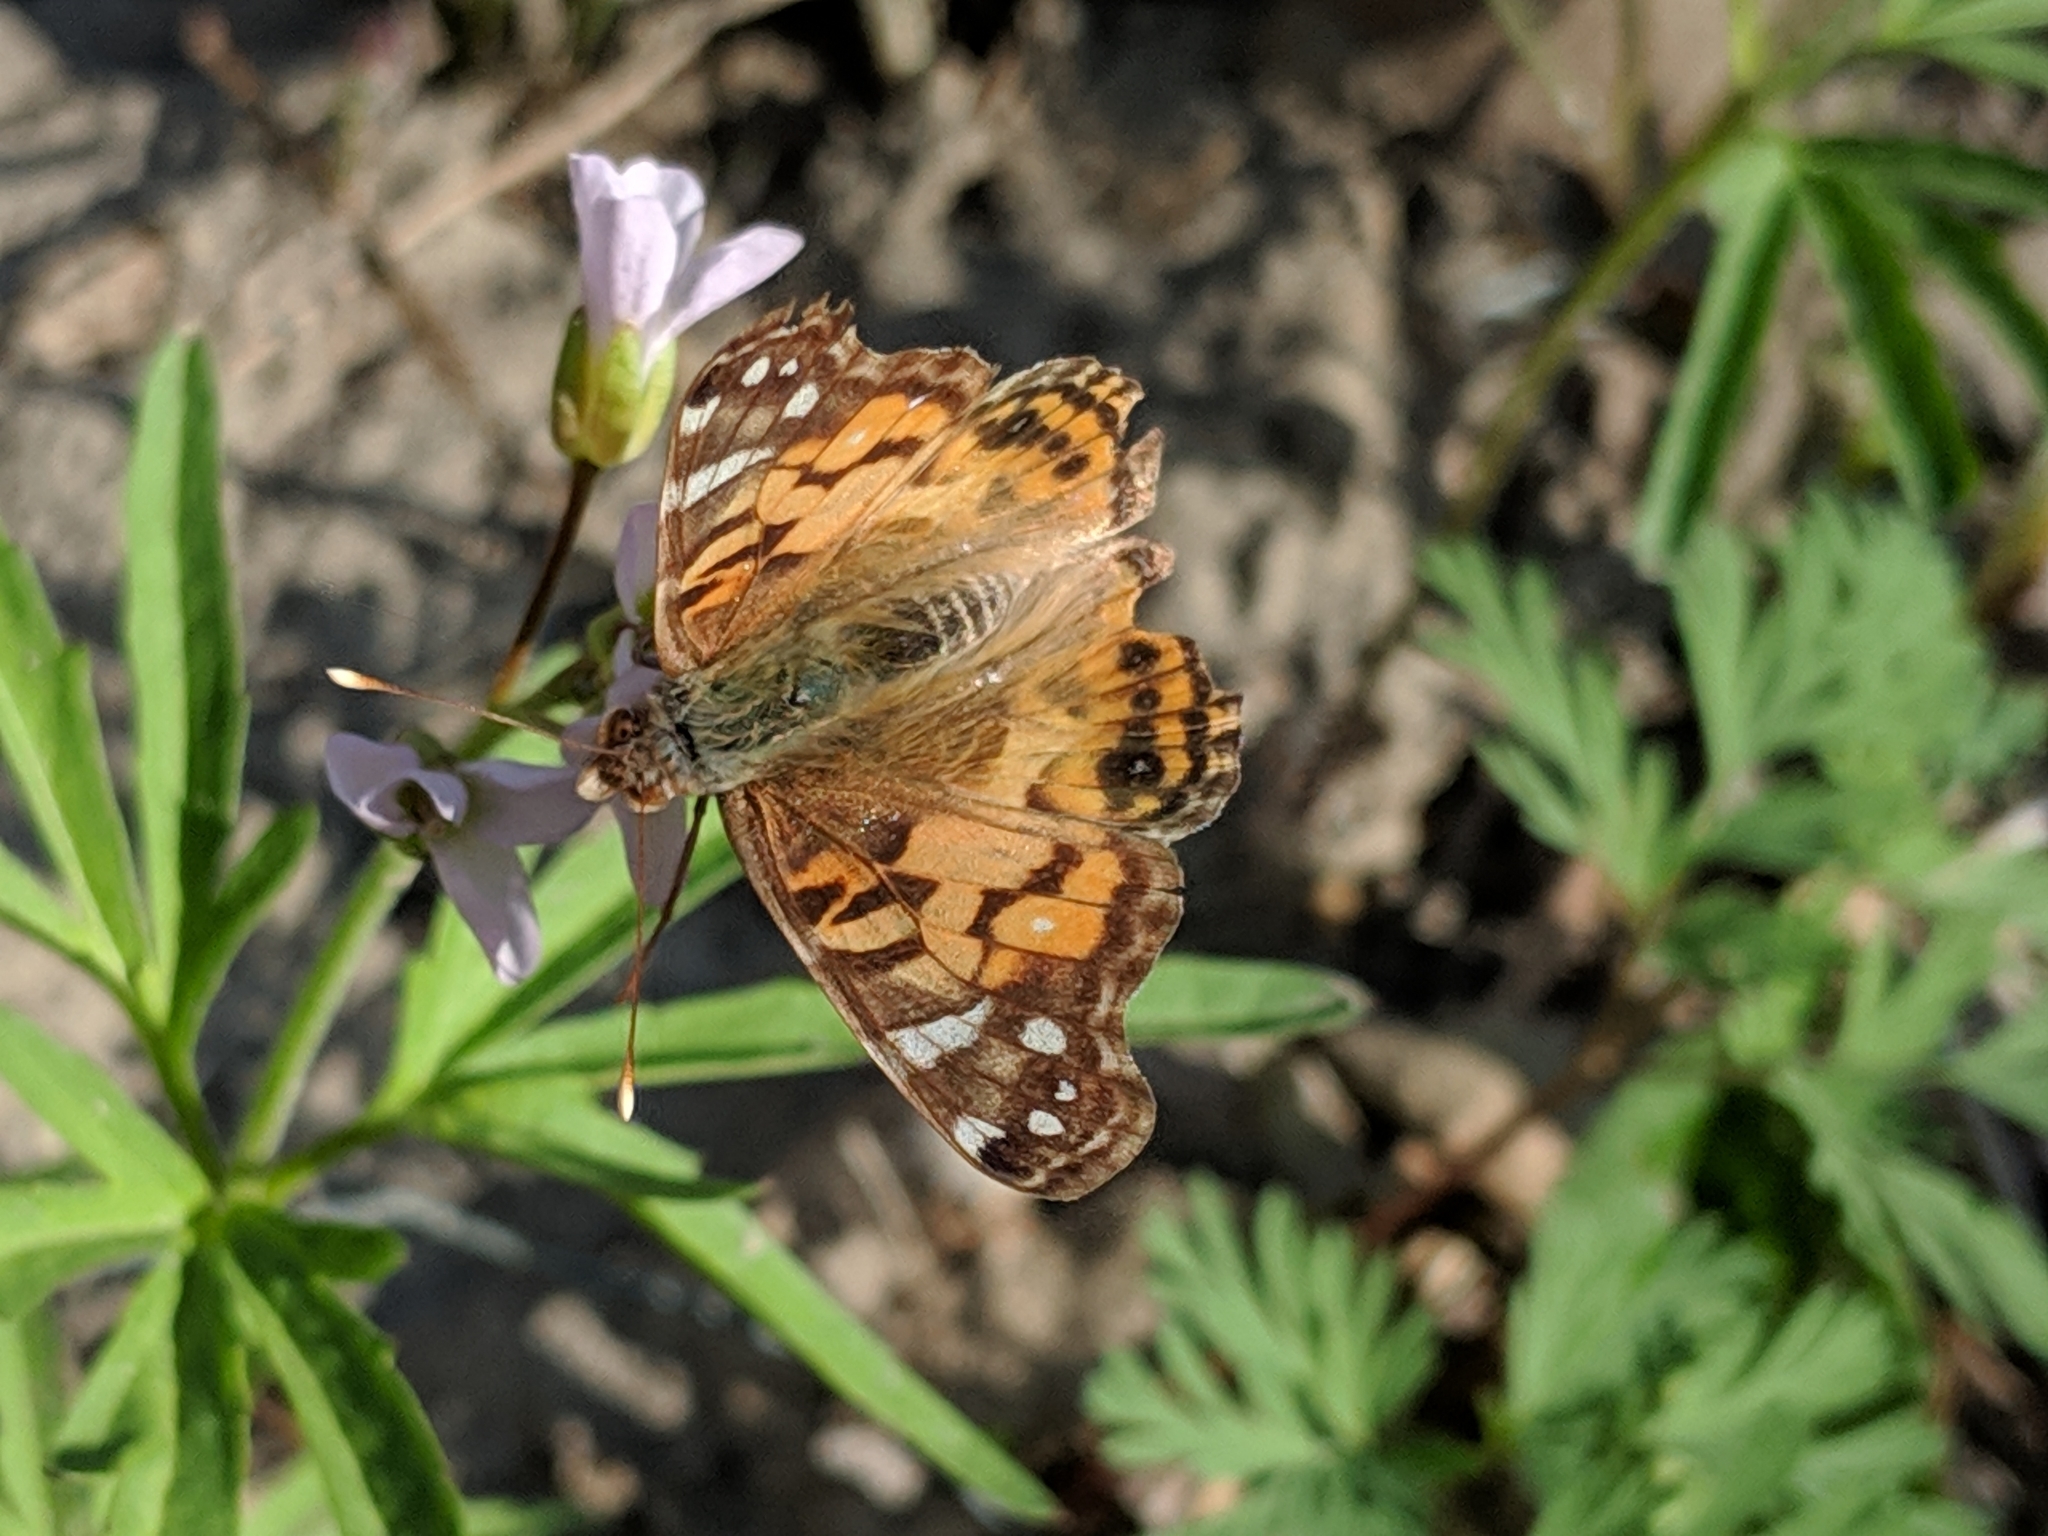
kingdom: Animalia
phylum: Arthropoda
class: Insecta
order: Lepidoptera
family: Nymphalidae
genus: Vanessa
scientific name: Vanessa virginiensis
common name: American lady
